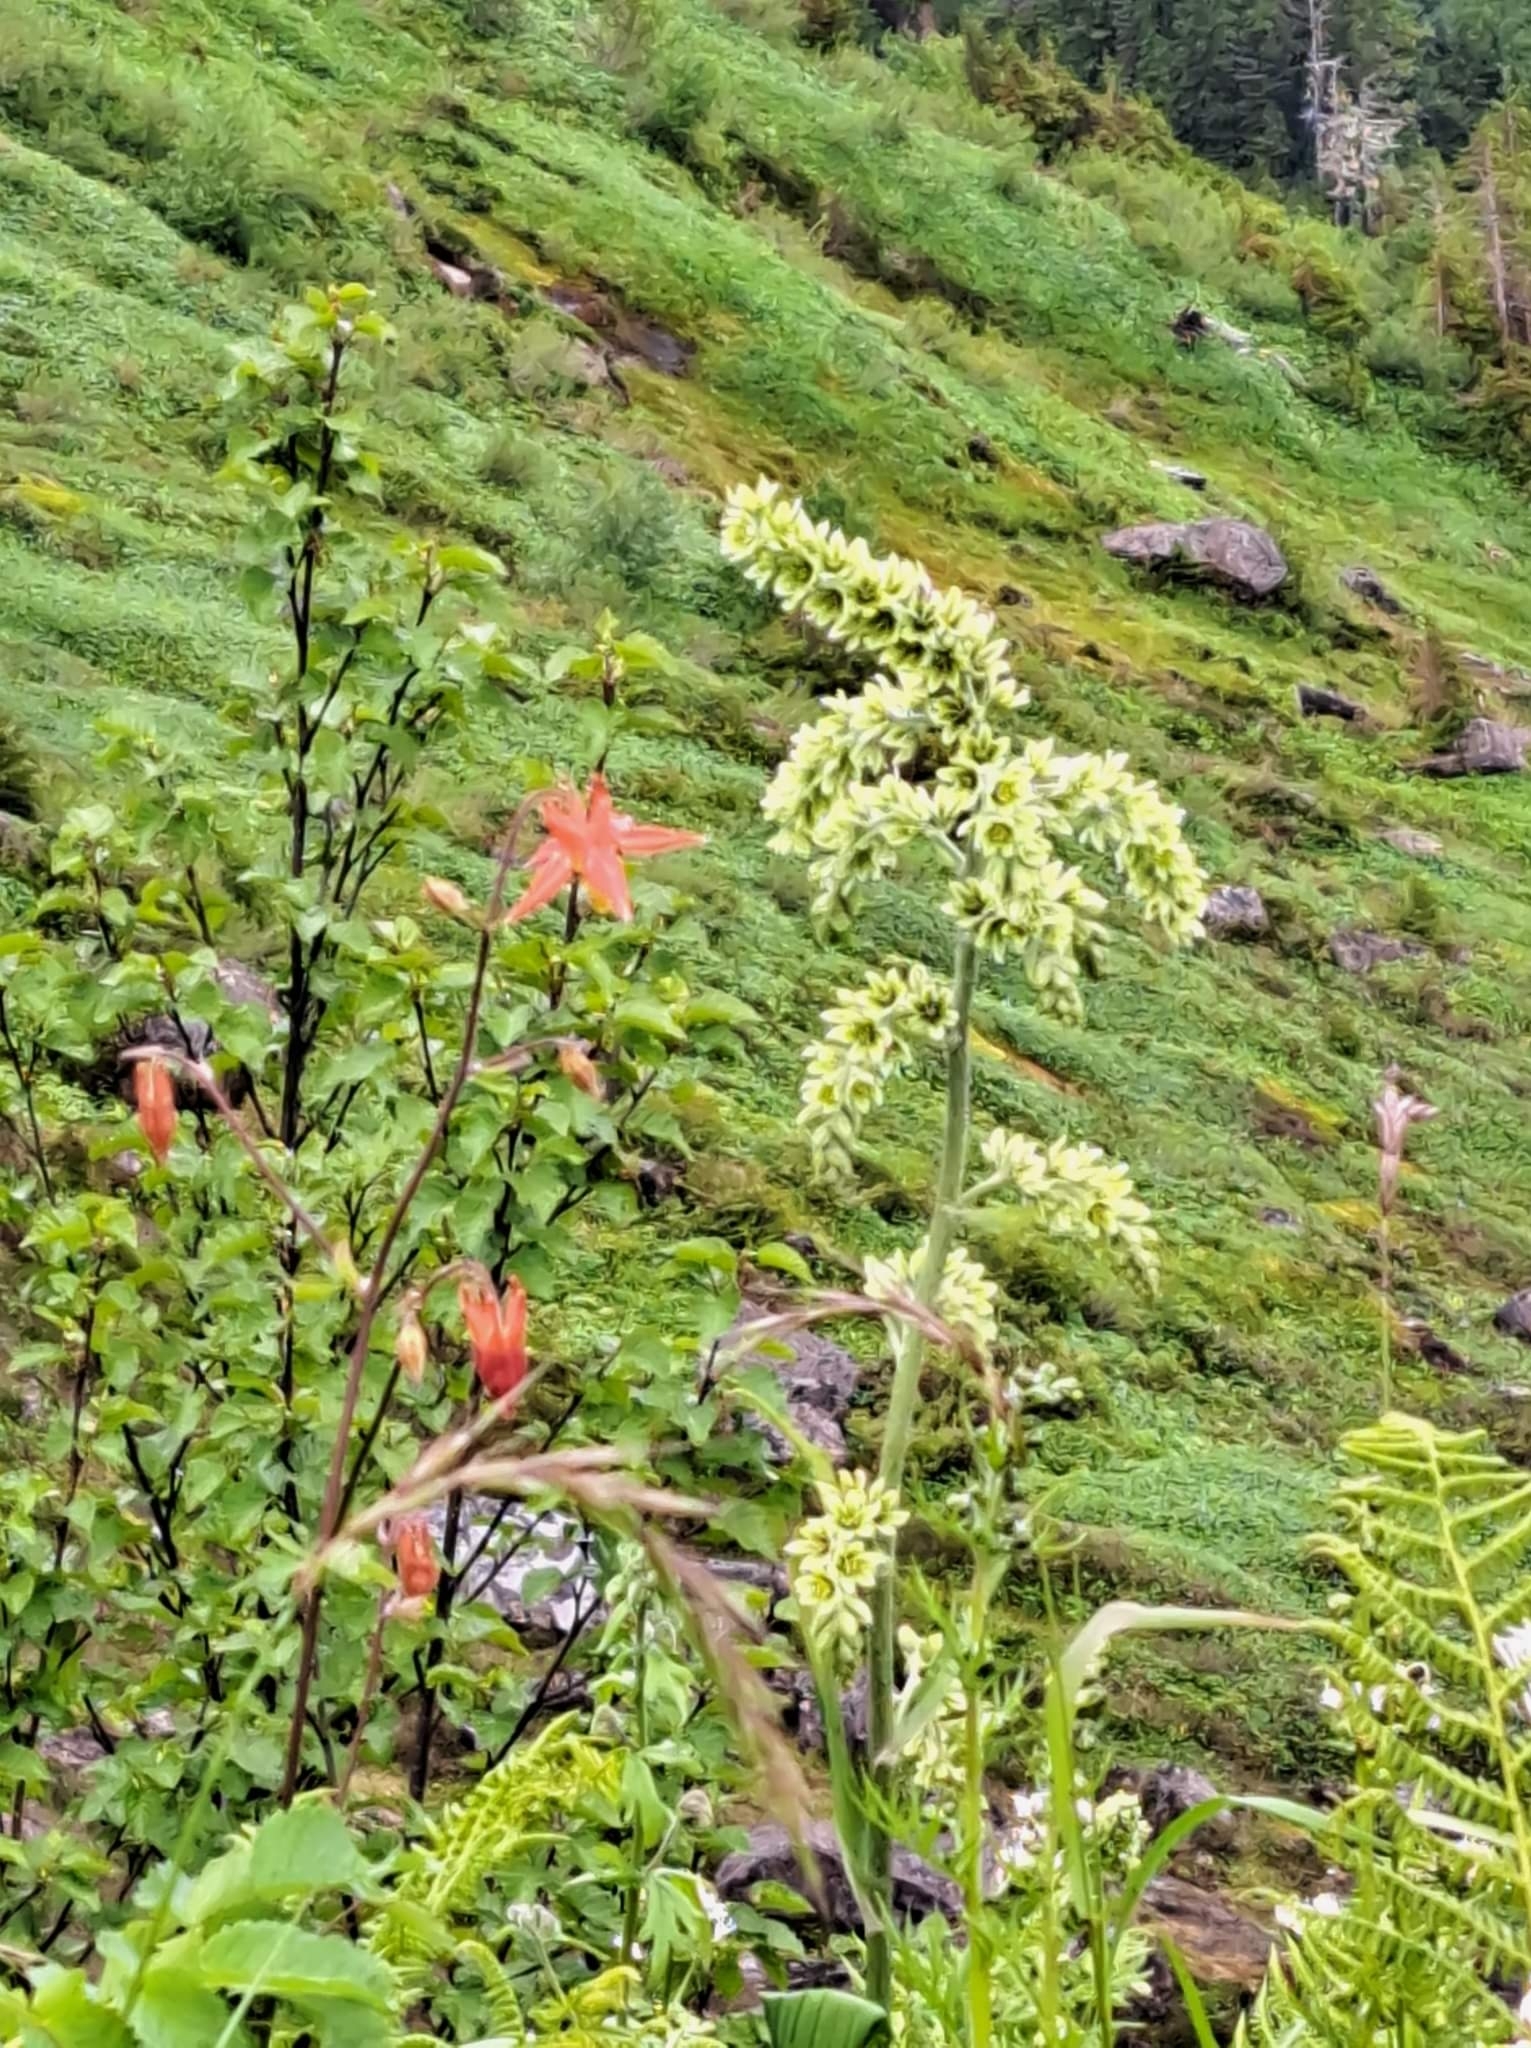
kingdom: Plantae
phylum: Tracheophyta
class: Liliopsida
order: Liliales
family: Melanthiaceae
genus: Veratrum
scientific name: Veratrum viride
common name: American false hellebore
